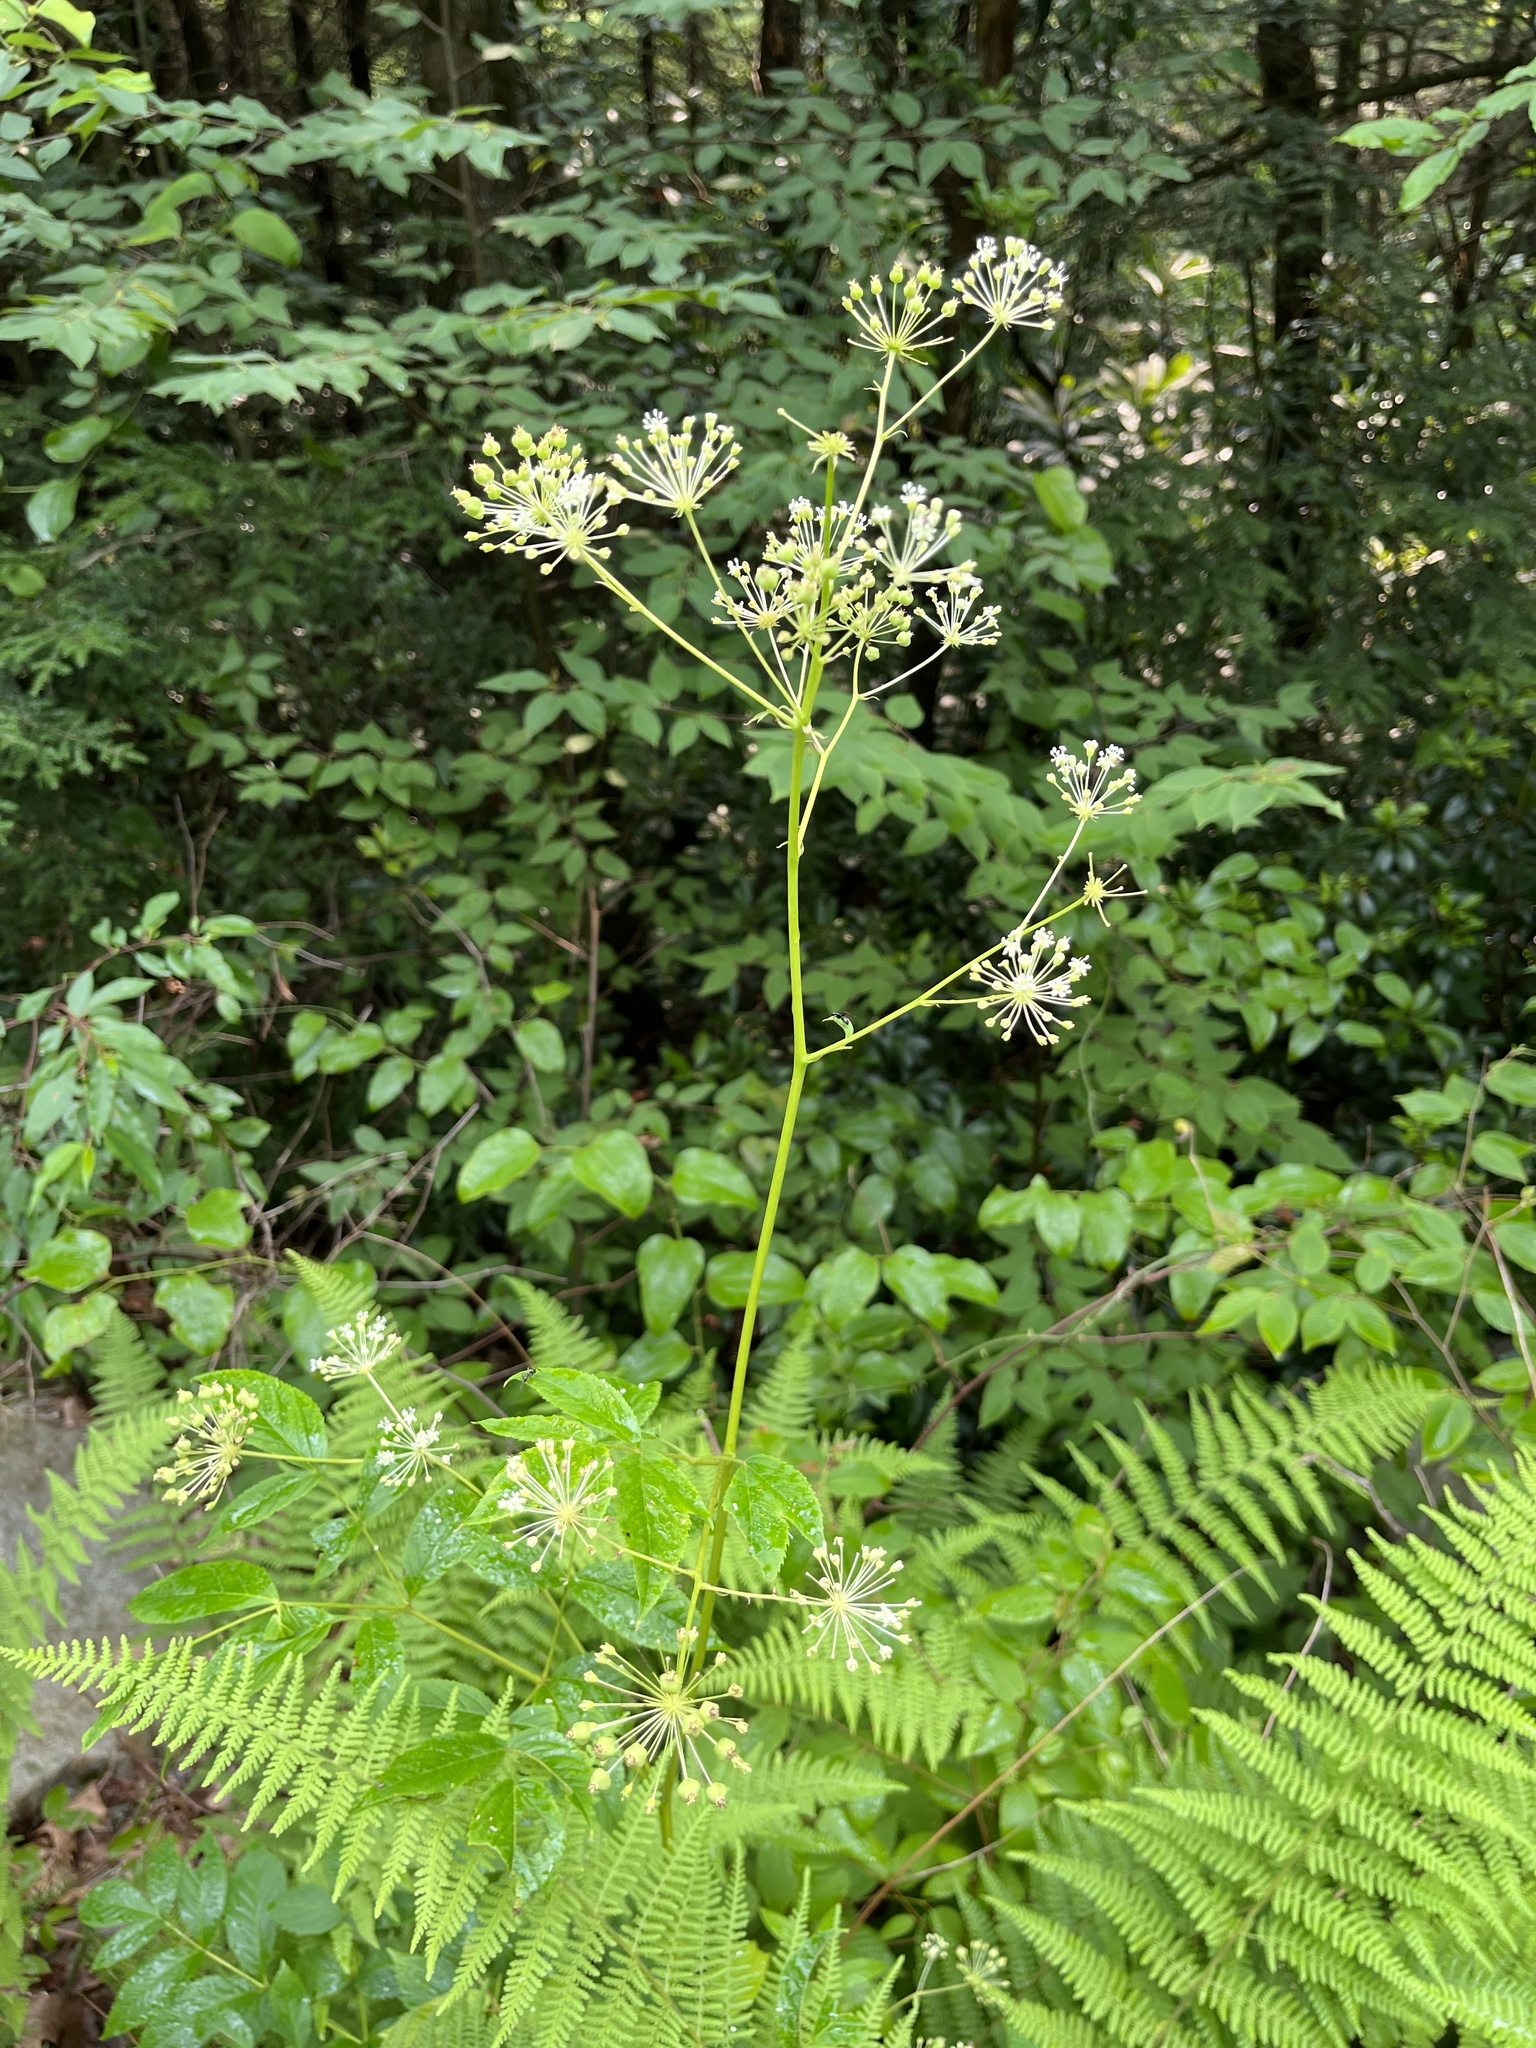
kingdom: Plantae
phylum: Tracheophyta
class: Magnoliopsida
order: Apiales
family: Araliaceae
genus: Aralia
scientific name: Aralia hispida
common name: Bristly sarsaparilla
